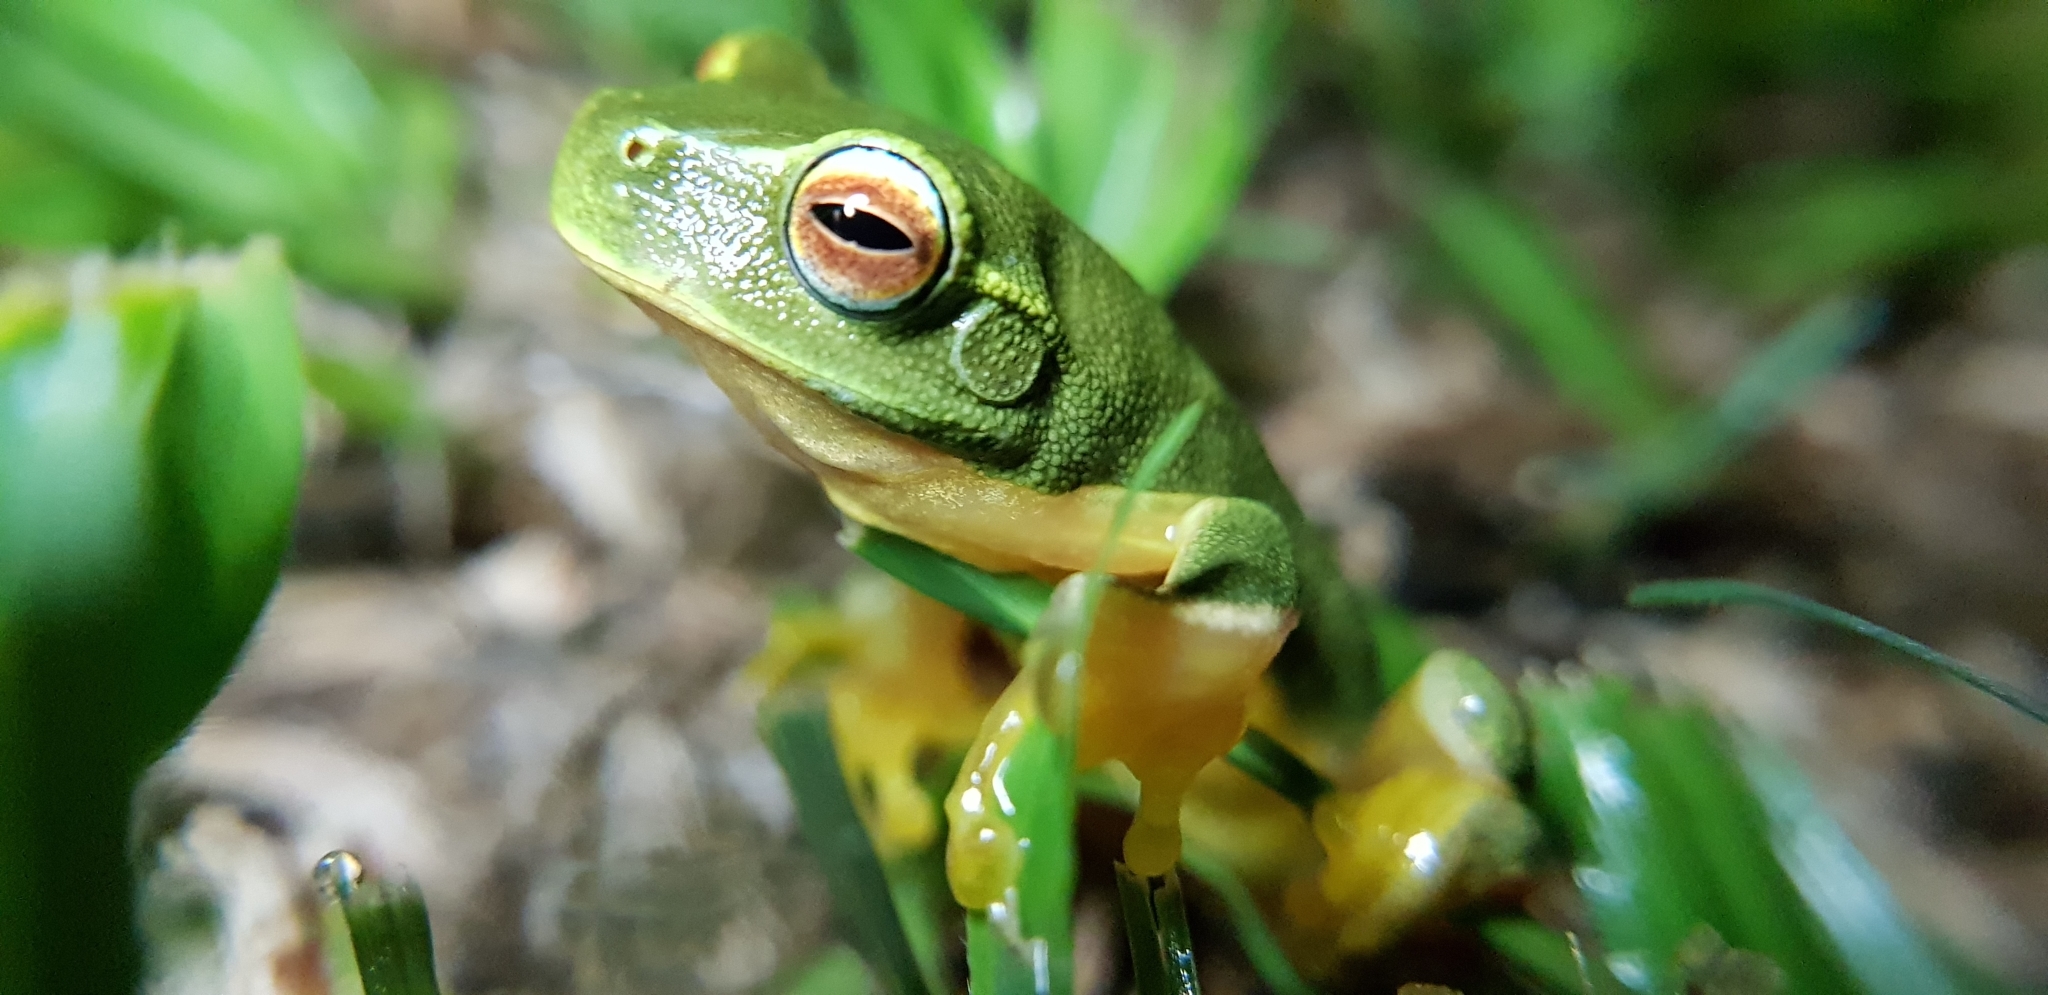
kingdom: Animalia
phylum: Chordata
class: Amphibia
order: Anura
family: Pelodryadidae
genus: Ranoidea
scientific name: Ranoidea gracilenta
